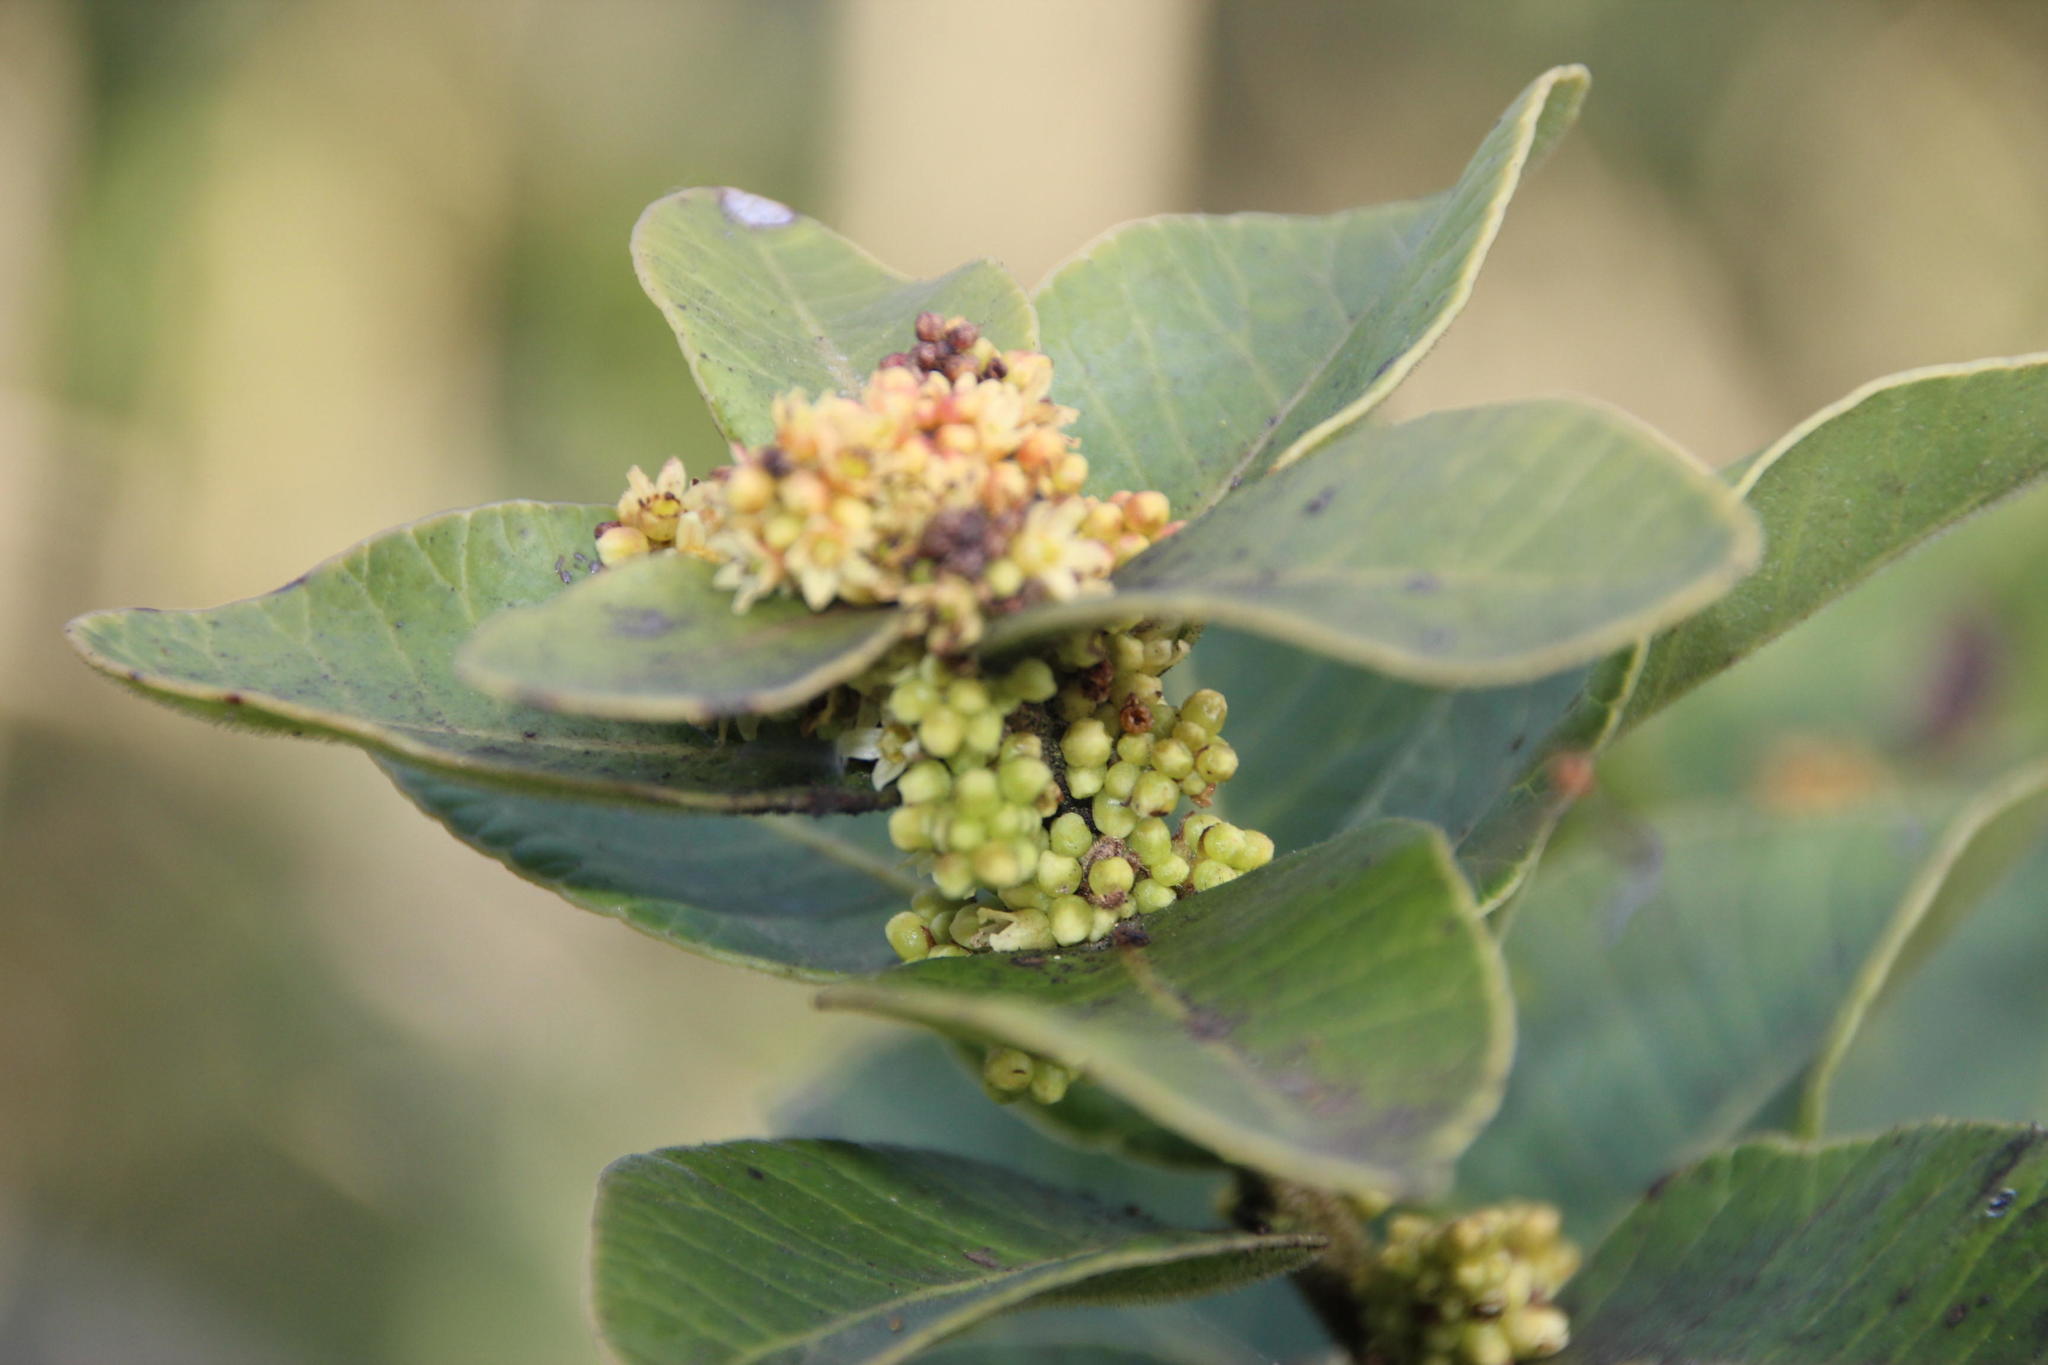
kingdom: Plantae
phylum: Tracheophyta
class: Magnoliopsida
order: Sapindales
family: Anacardiaceae
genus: Lithraea
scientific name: Lithraea caustica
